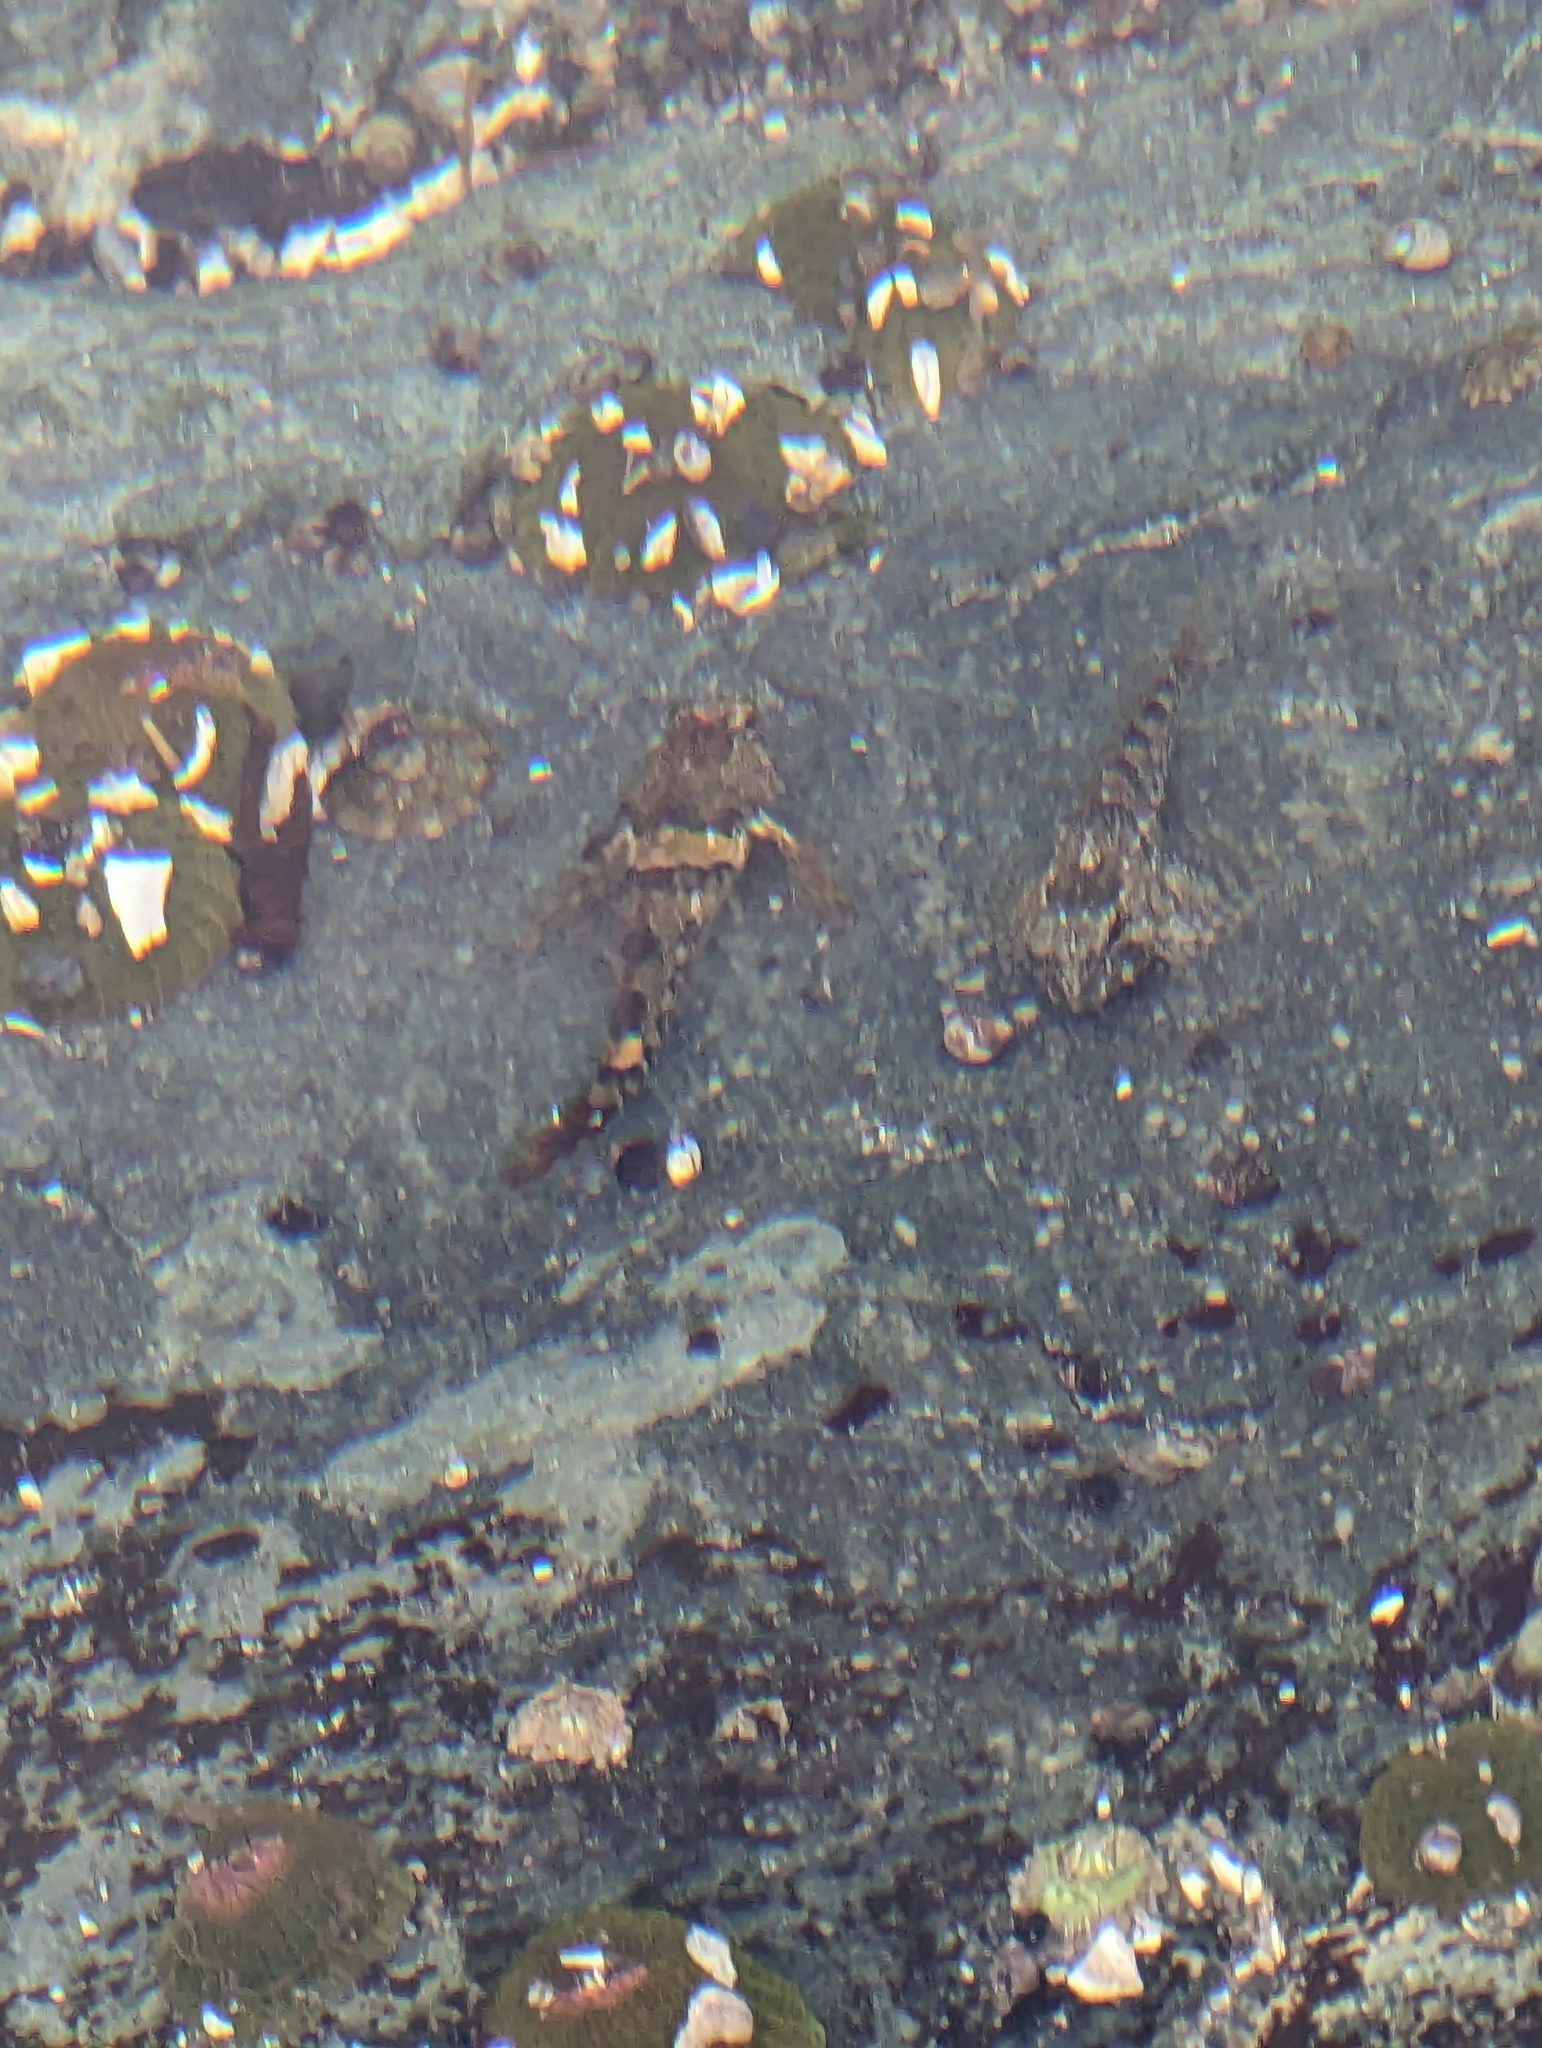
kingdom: Animalia
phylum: Chordata
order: Scorpaeniformes
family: Cottidae
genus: Oligocottus
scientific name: Oligocottus maculosus
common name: Tidepool sculpin
